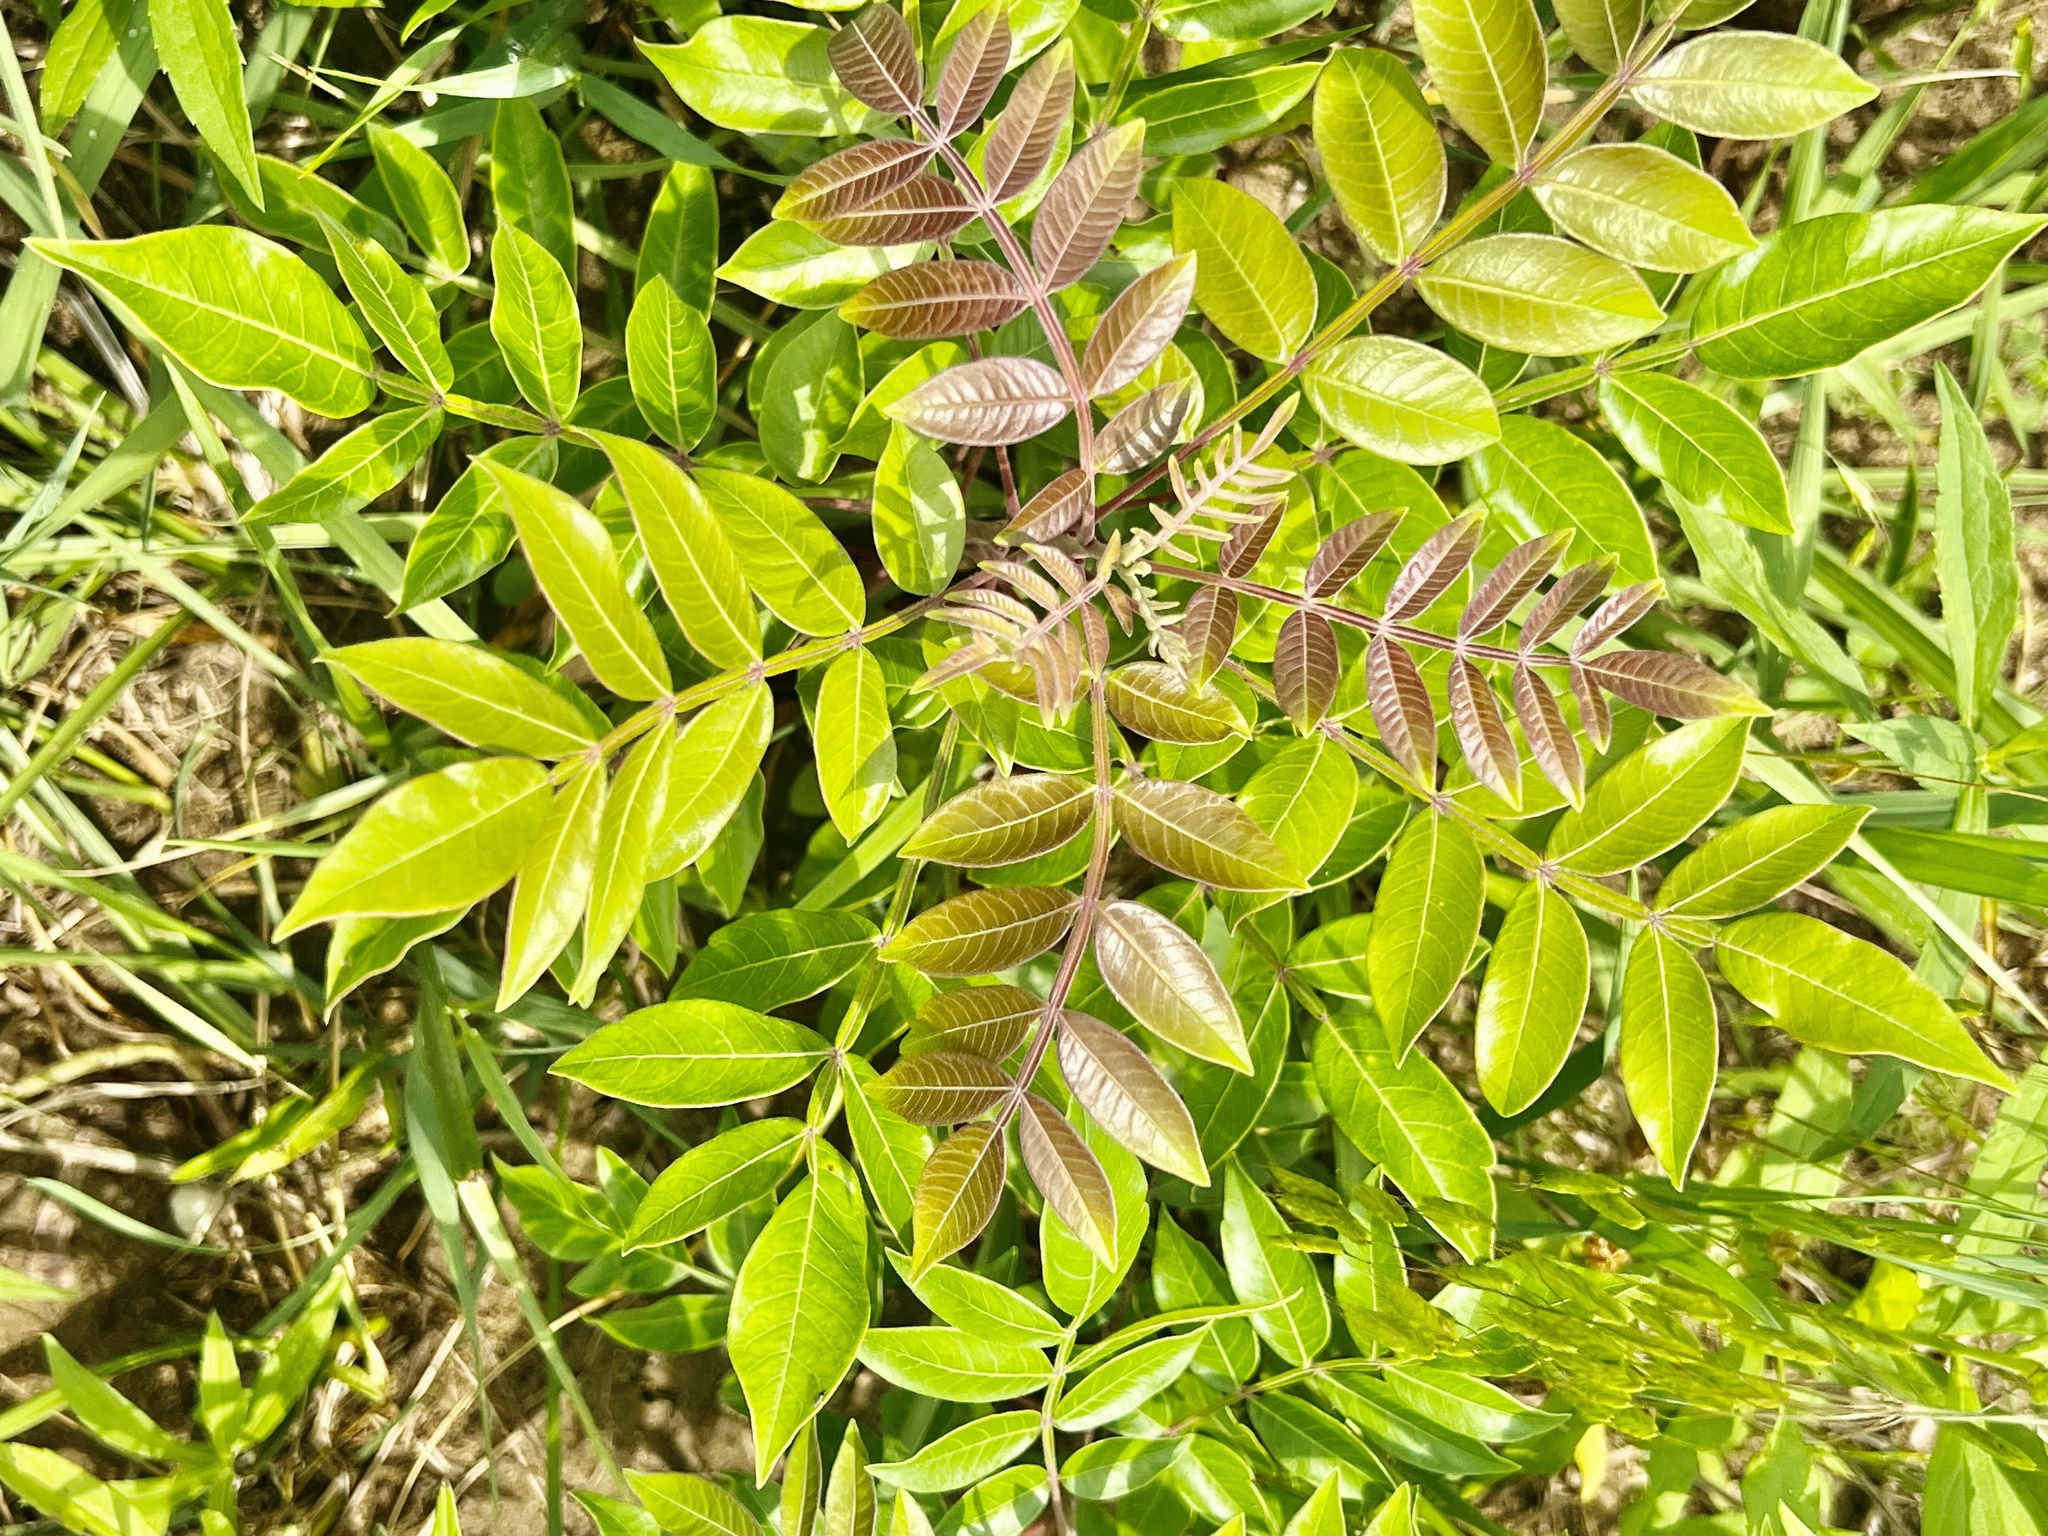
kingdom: Plantae
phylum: Tracheophyta
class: Magnoliopsida
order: Sapindales
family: Anacardiaceae
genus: Rhus
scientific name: Rhus copallina
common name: Shining sumac
